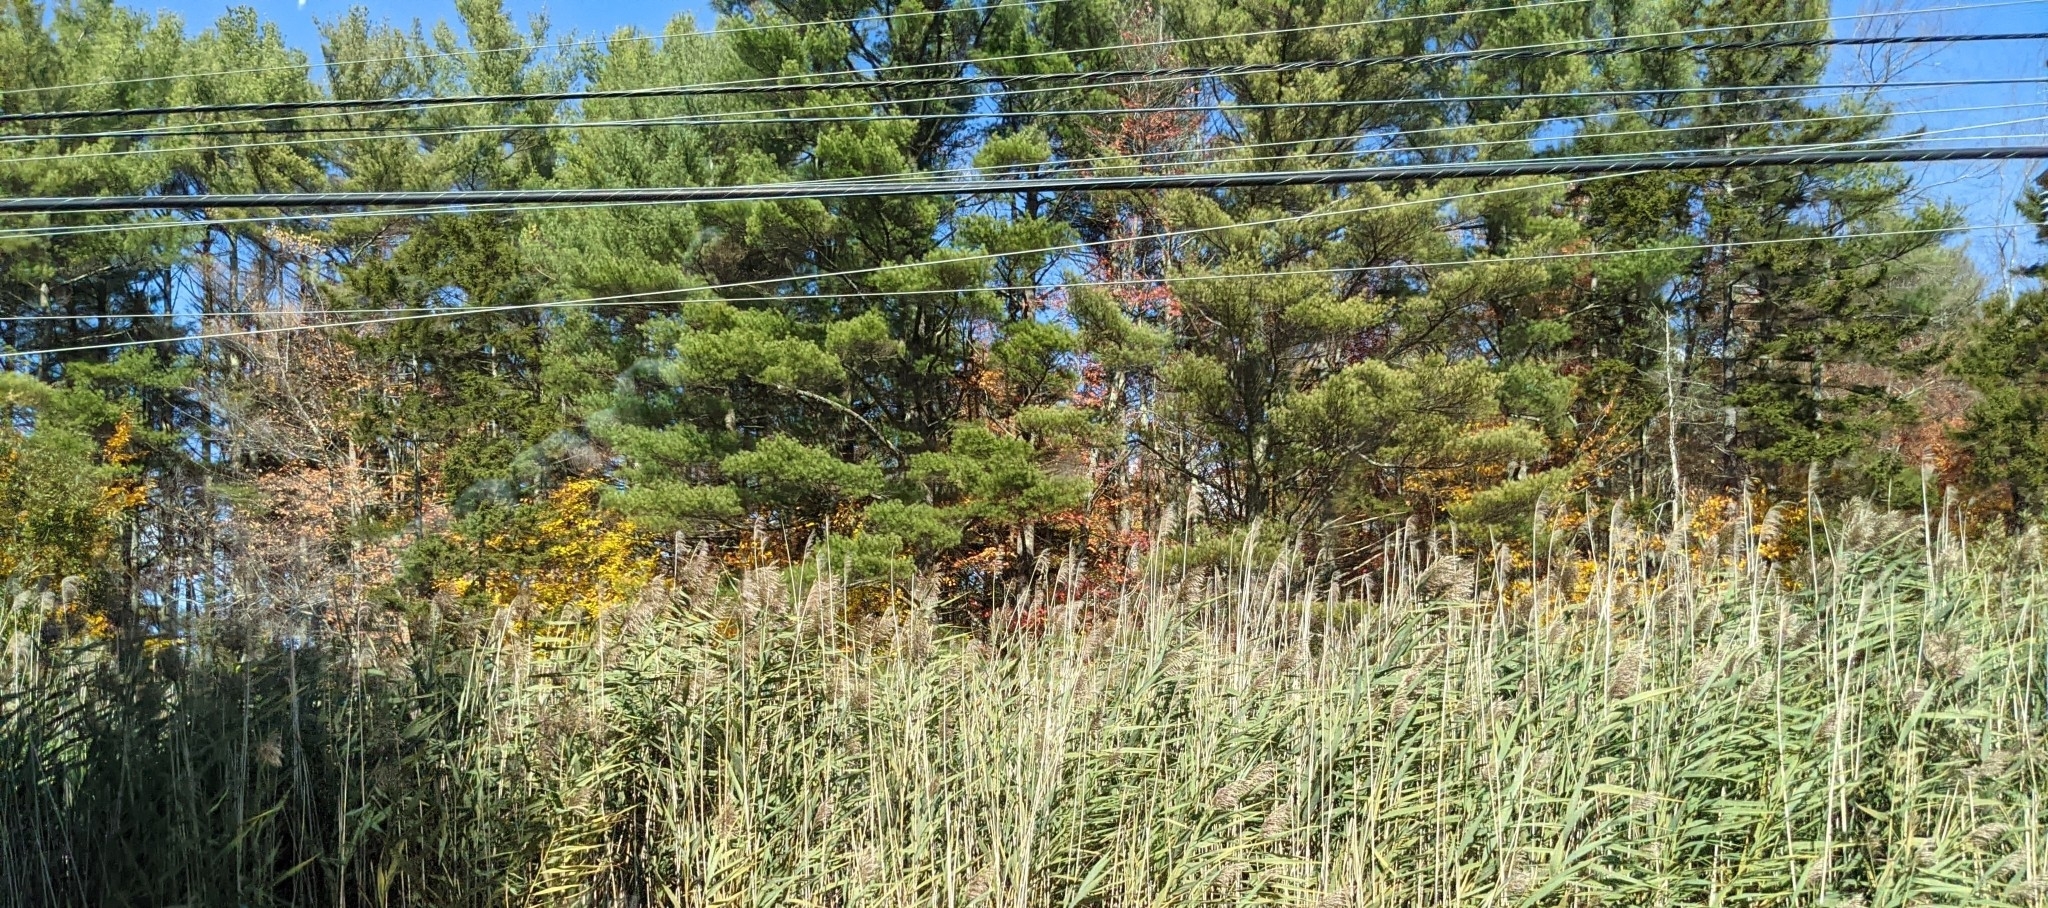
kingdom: Plantae
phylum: Tracheophyta
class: Pinopsida
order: Pinales
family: Pinaceae
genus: Pinus
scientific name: Pinus strobus
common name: Weymouth pine
